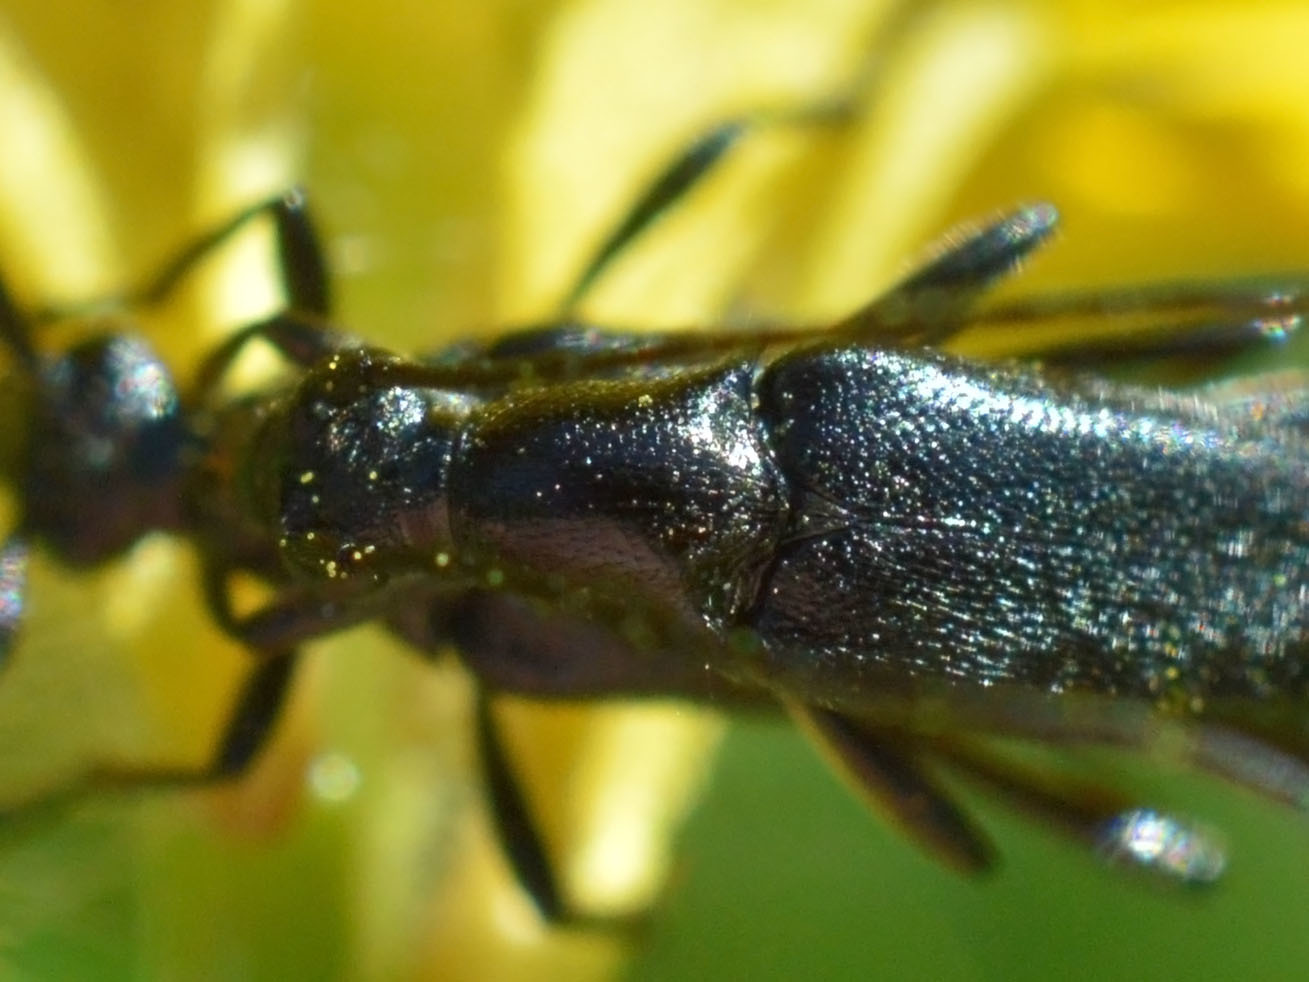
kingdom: Animalia
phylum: Arthropoda
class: Insecta
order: Coleoptera
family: Cerambycidae
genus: Stenurella
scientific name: Stenurella nigra
